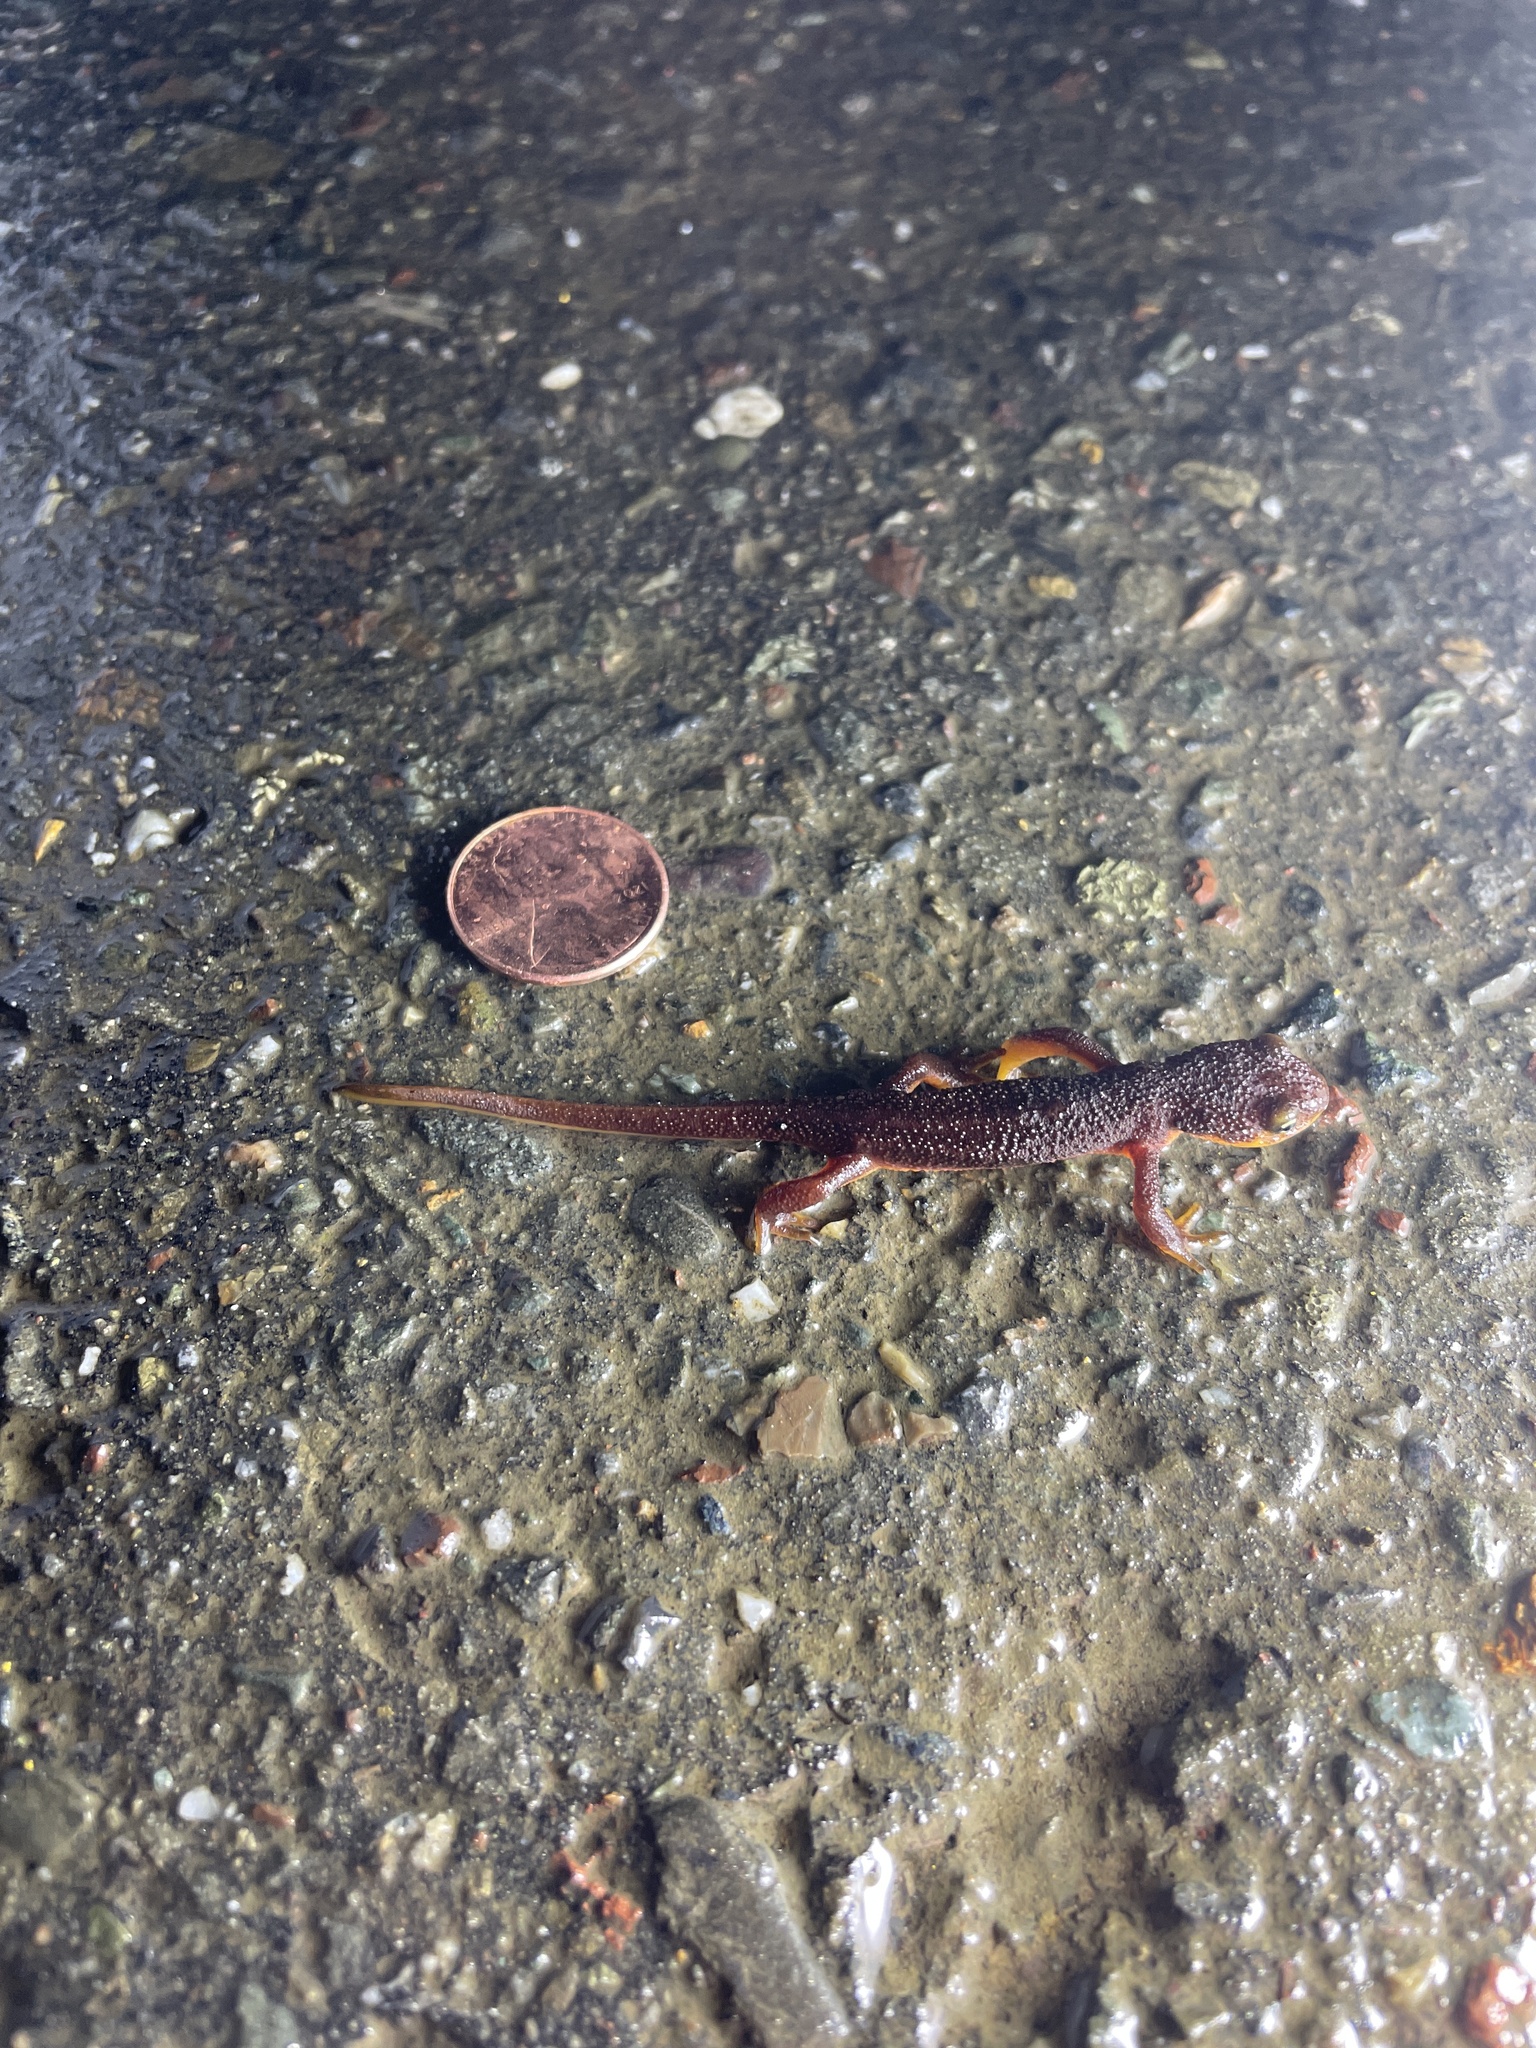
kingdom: Animalia
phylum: Chordata
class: Amphibia
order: Caudata
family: Salamandridae
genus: Taricha
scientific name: Taricha torosa
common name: California newt
